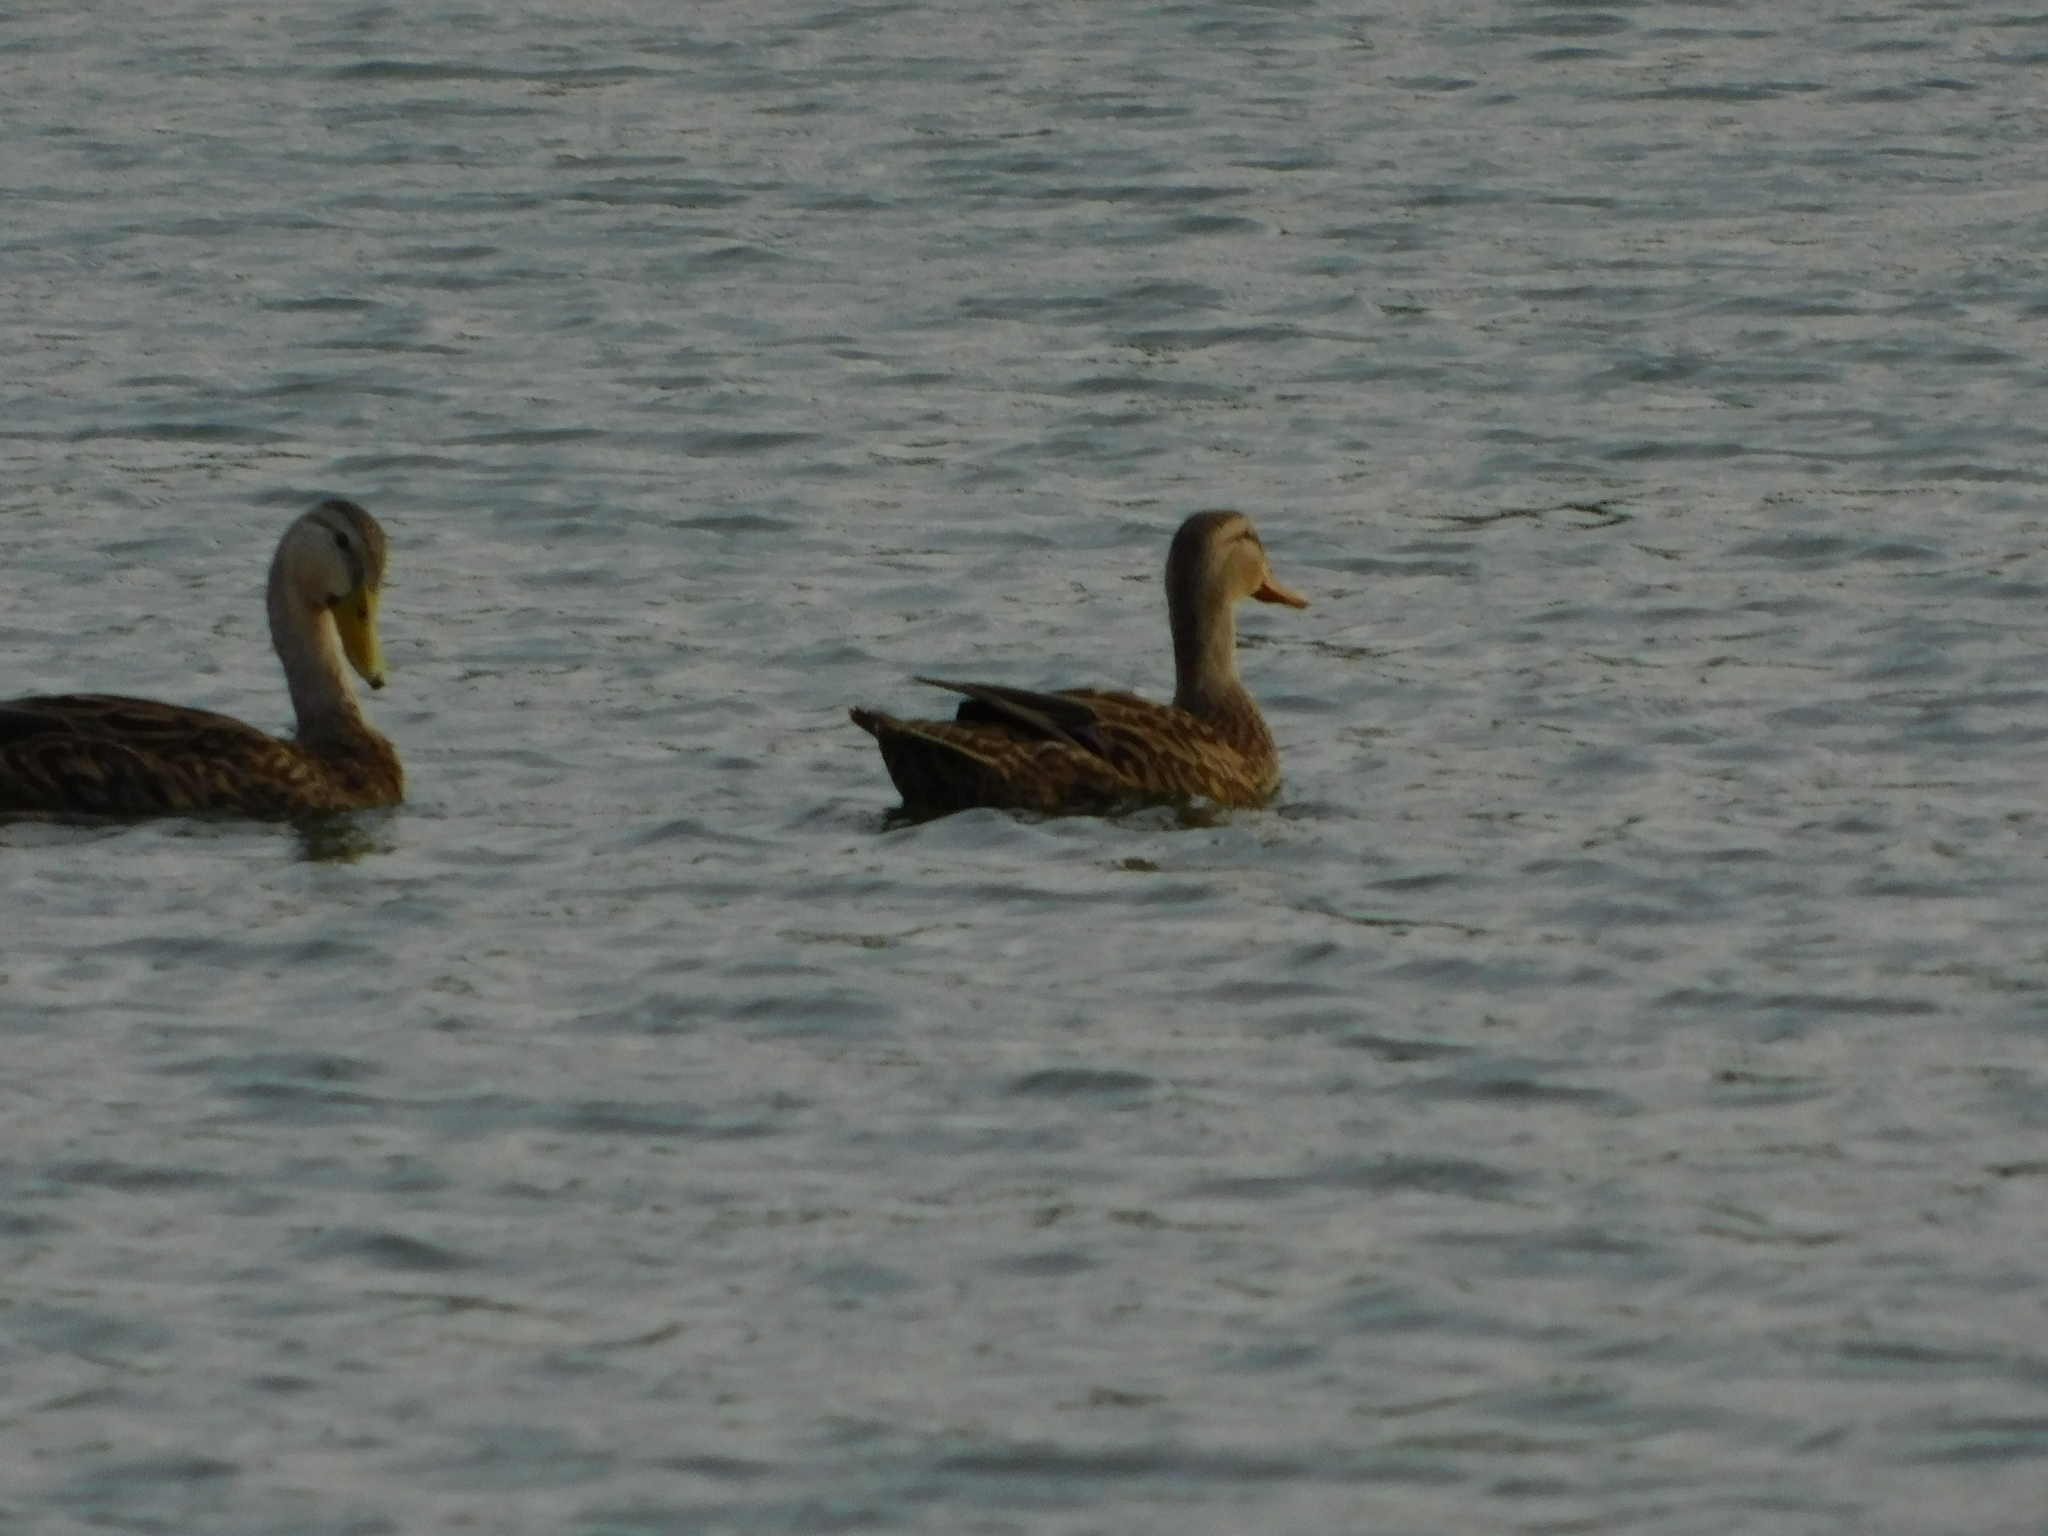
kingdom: Animalia
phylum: Chordata
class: Aves
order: Anseriformes
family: Anatidae
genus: Anas
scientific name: Anas fulvigula
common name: Mottled duck
